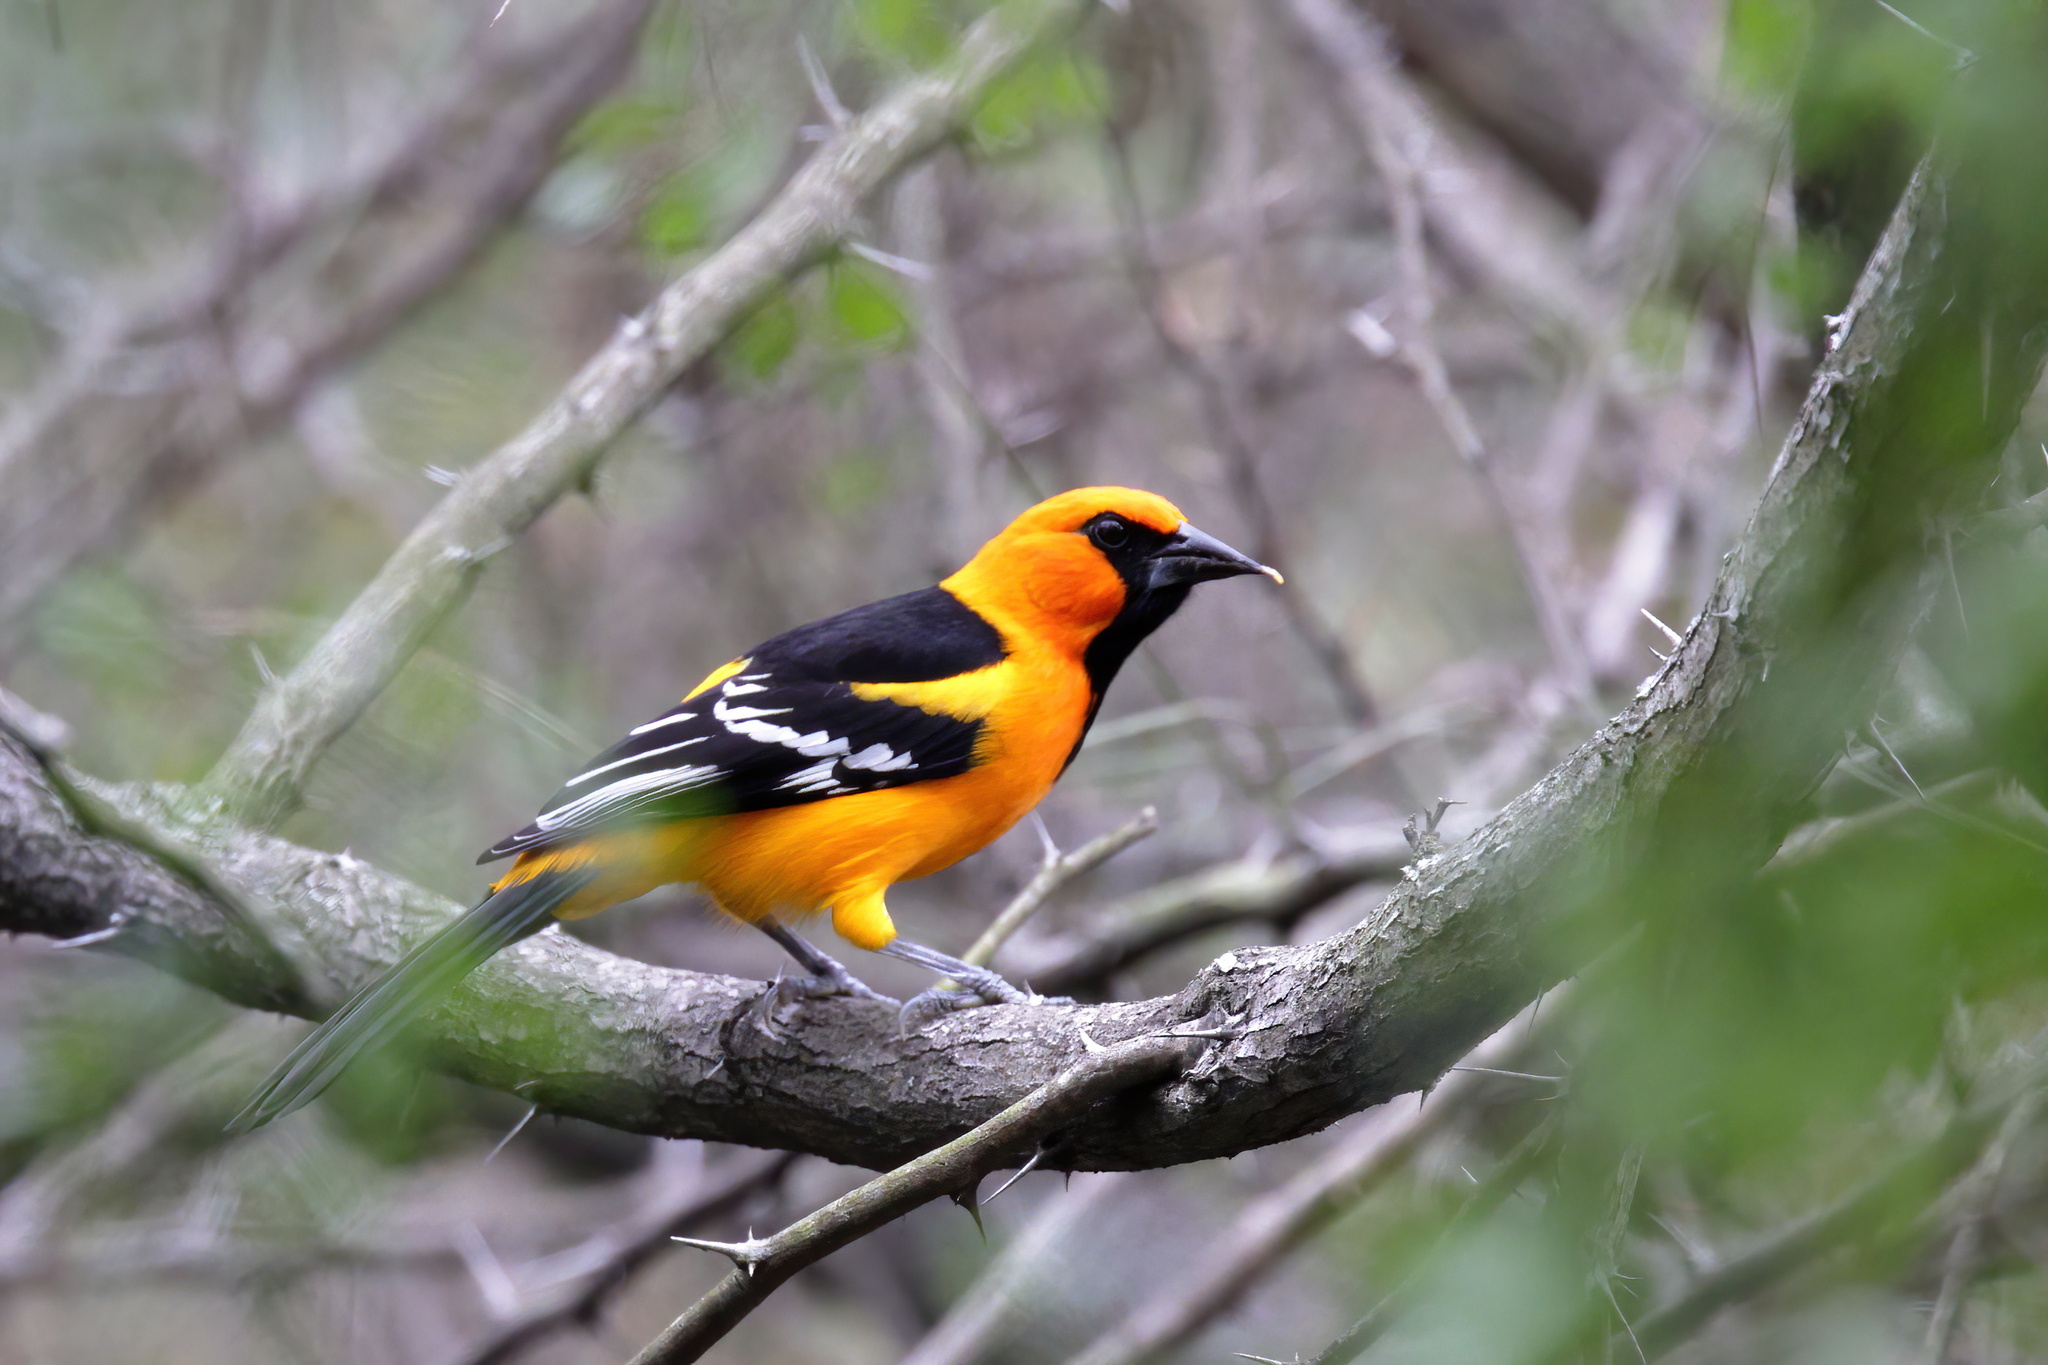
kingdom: Animalia
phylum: Chordata
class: Aves
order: Passeriformes
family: Icteridae
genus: Icterus
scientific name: Icterus gularis
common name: Altamira oriole
